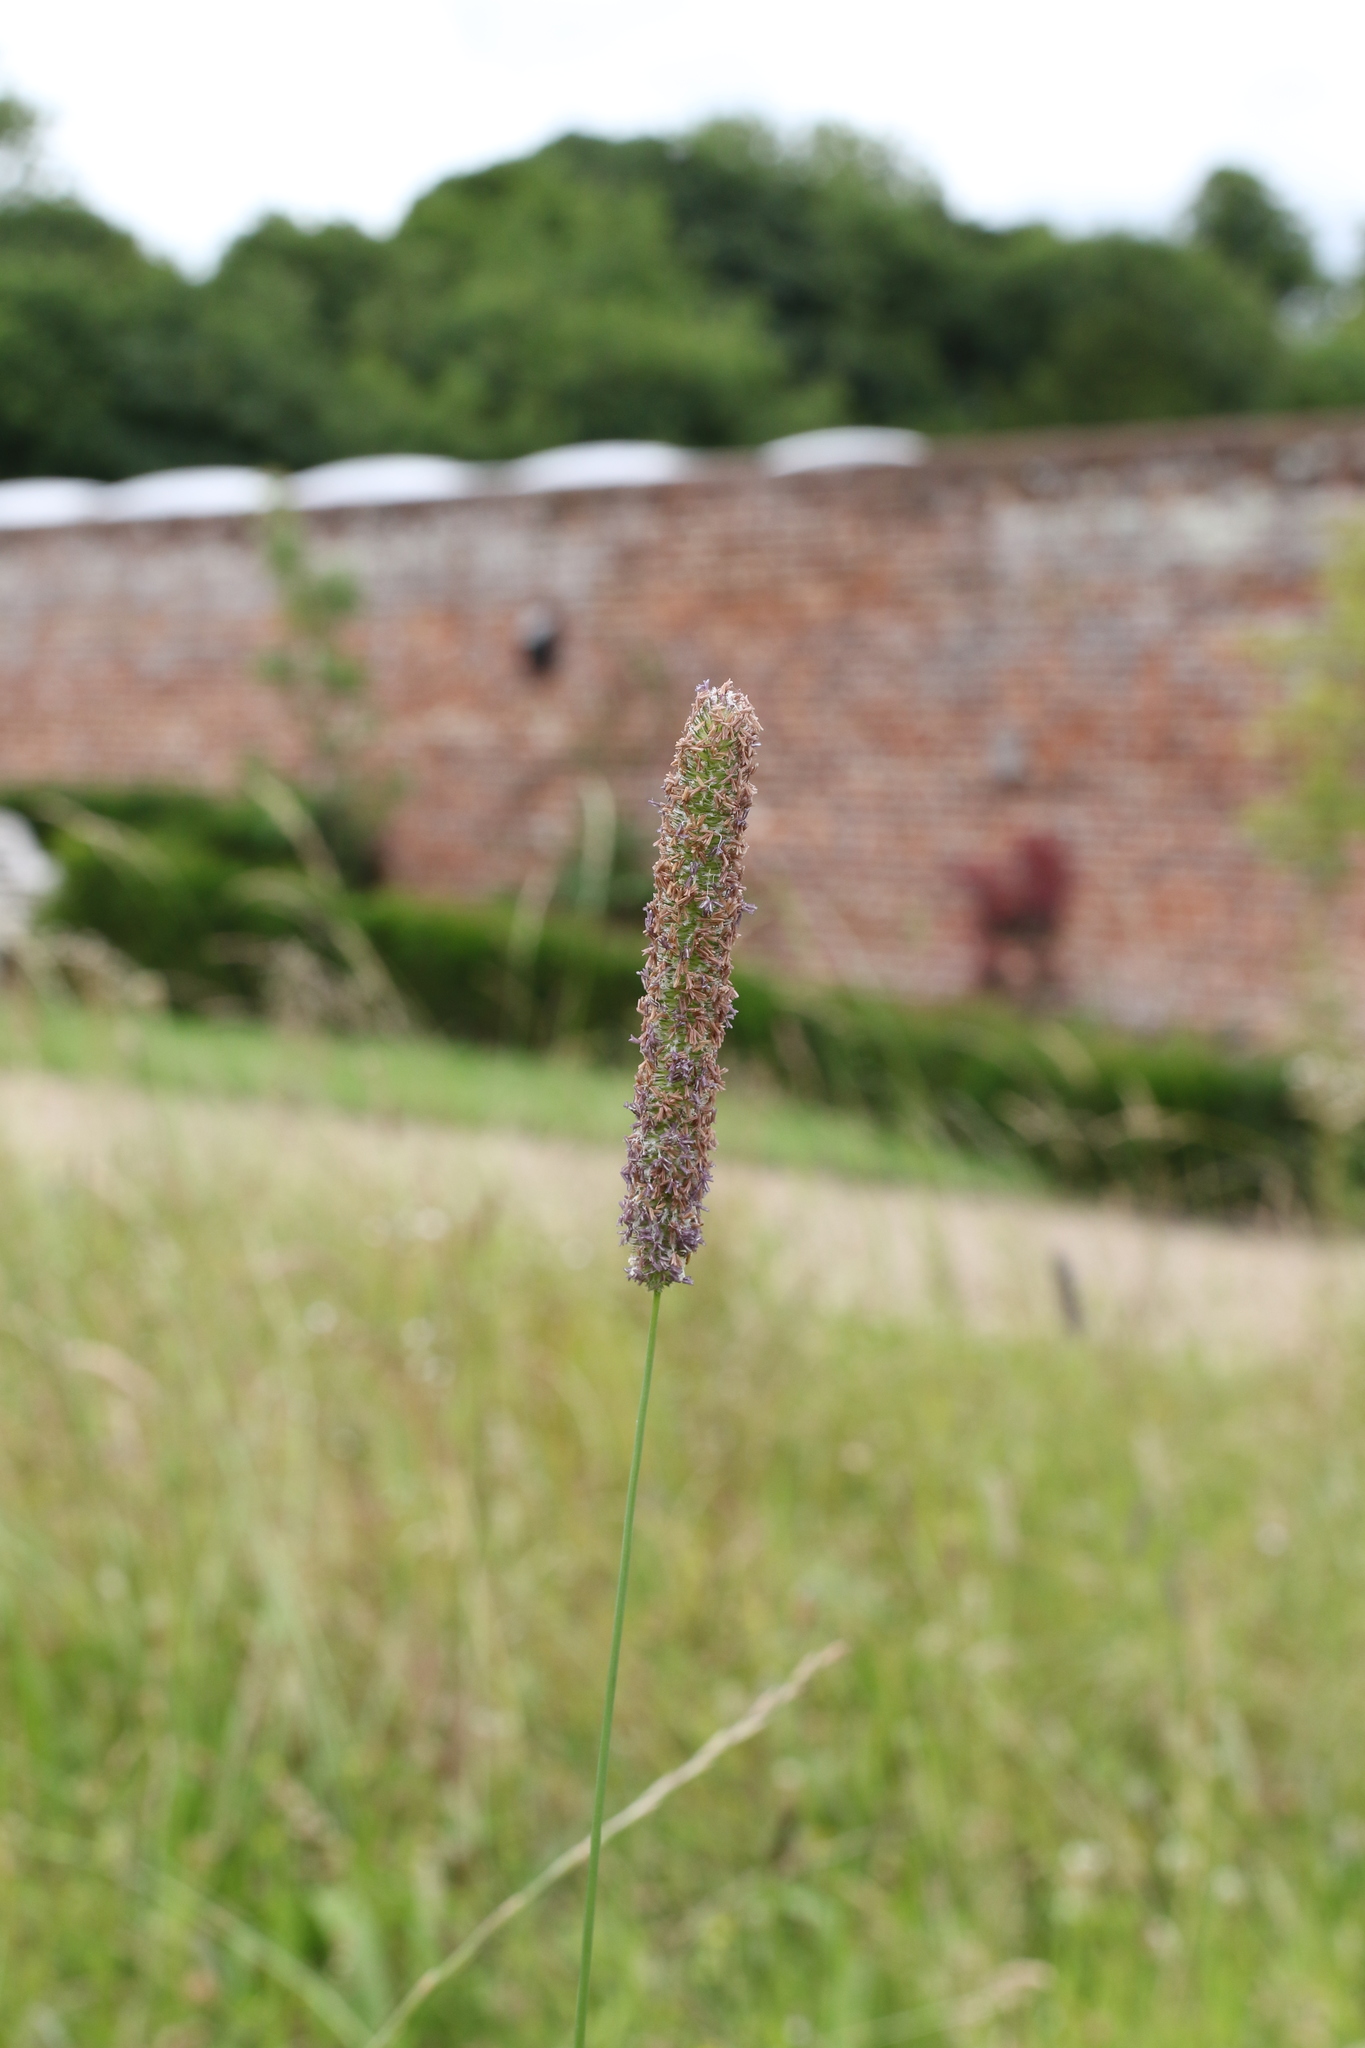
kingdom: Plantae
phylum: Tracheophyta
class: Liliopsida
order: Poales
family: Poaceae
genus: Phleum
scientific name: Phleum pratense
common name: Timothy grass
